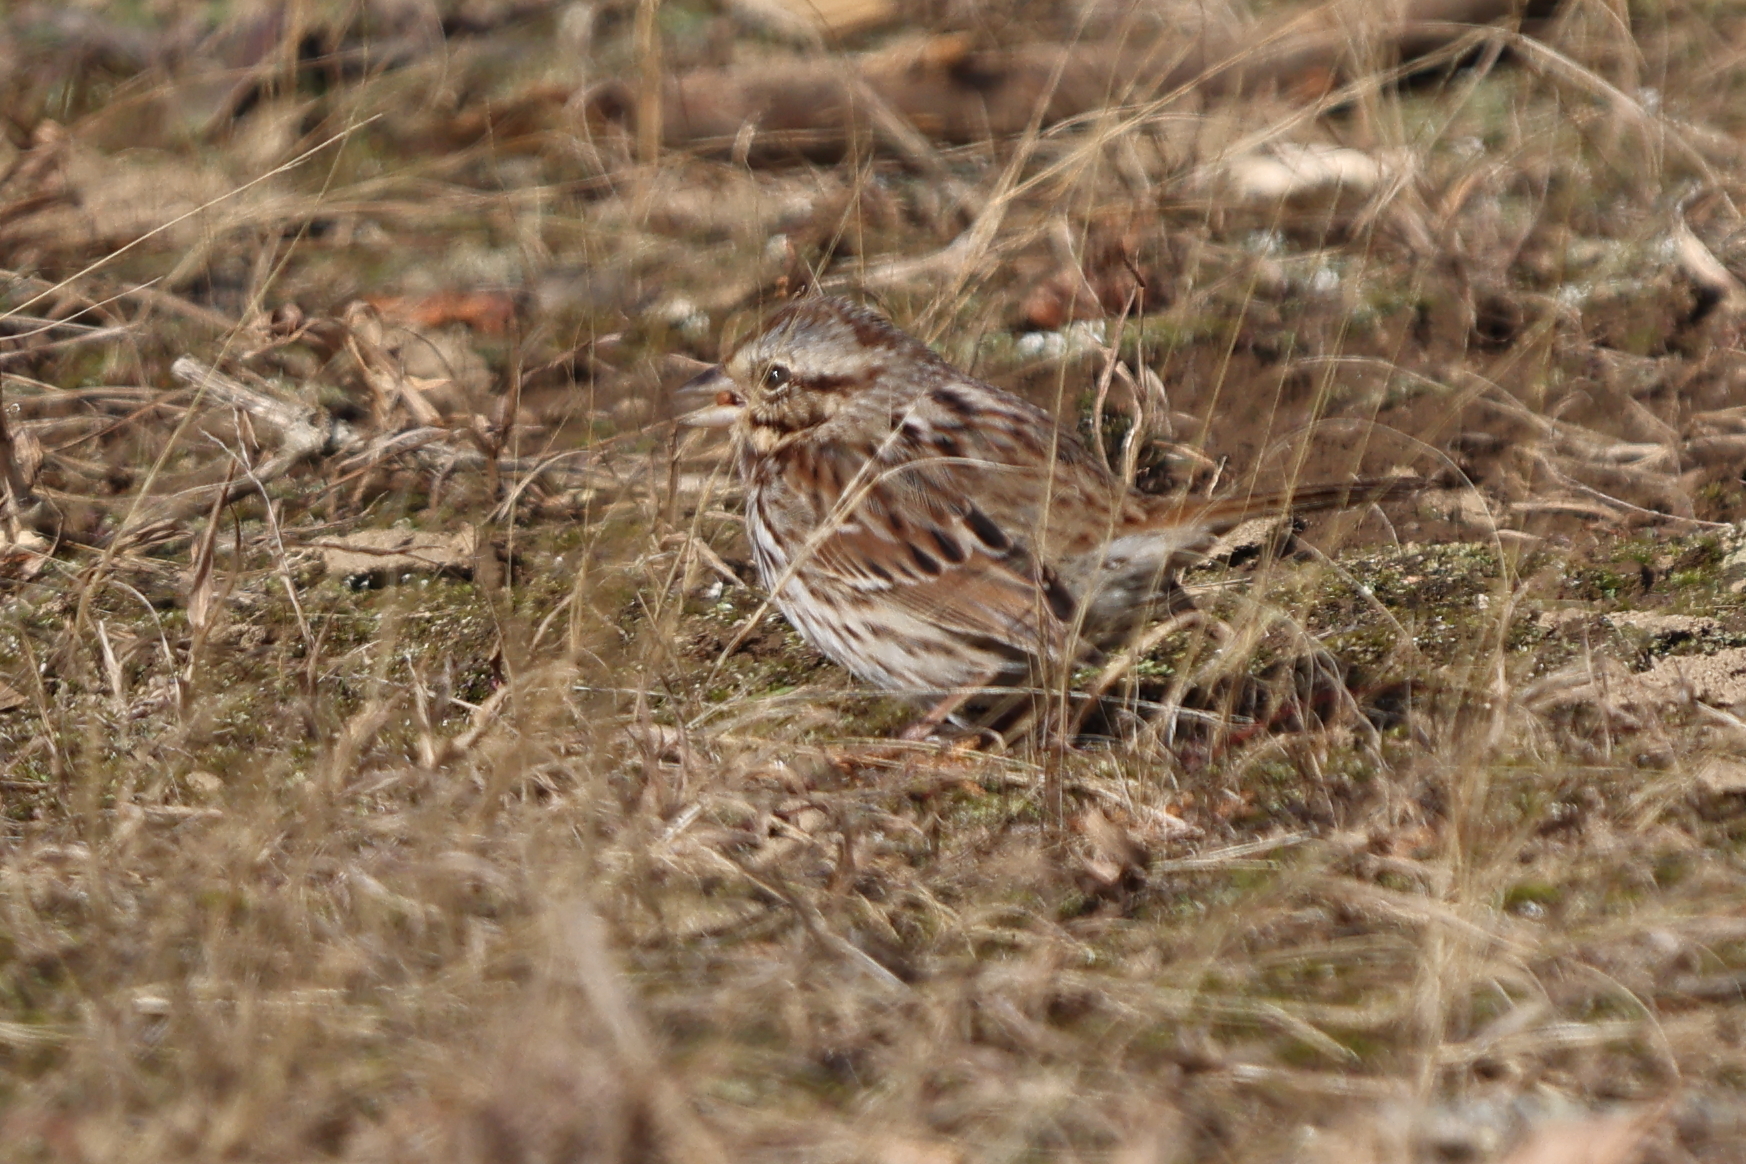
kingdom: Animalia
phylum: Chordata
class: Aves
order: Passeriformes
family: Passerellidae
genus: Melospiza
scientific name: Melospiza melodia
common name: Song sparrow
